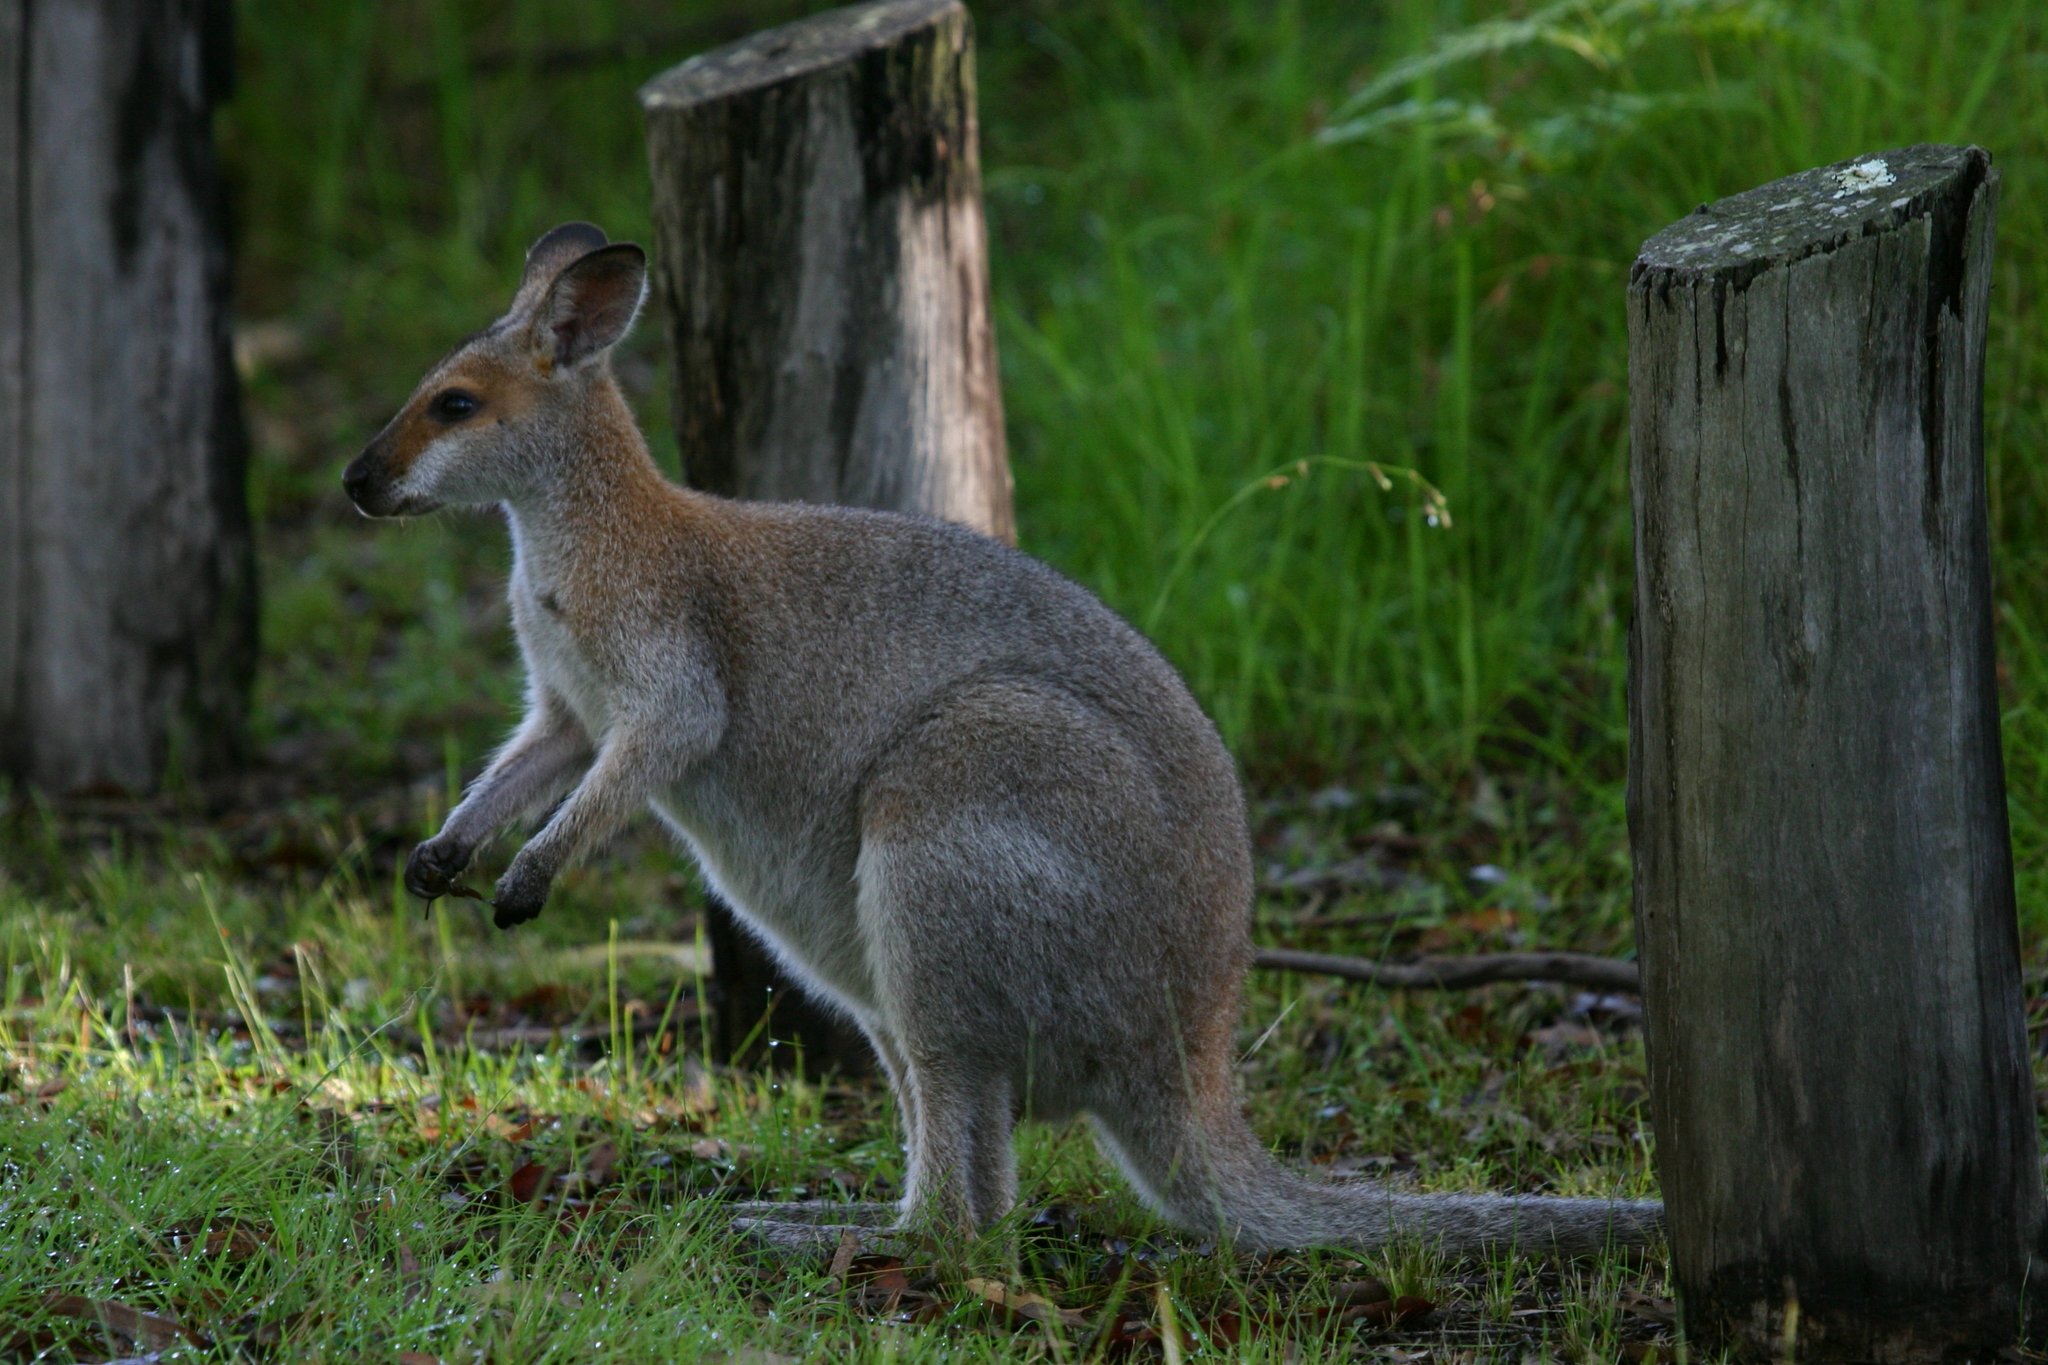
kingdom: Animalia
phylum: Chordata
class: Mammalia
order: Diprotodontia
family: Macropodidae
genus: Notamacropus
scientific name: Notamacropus rufogriseus
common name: Red-necked wallaby
